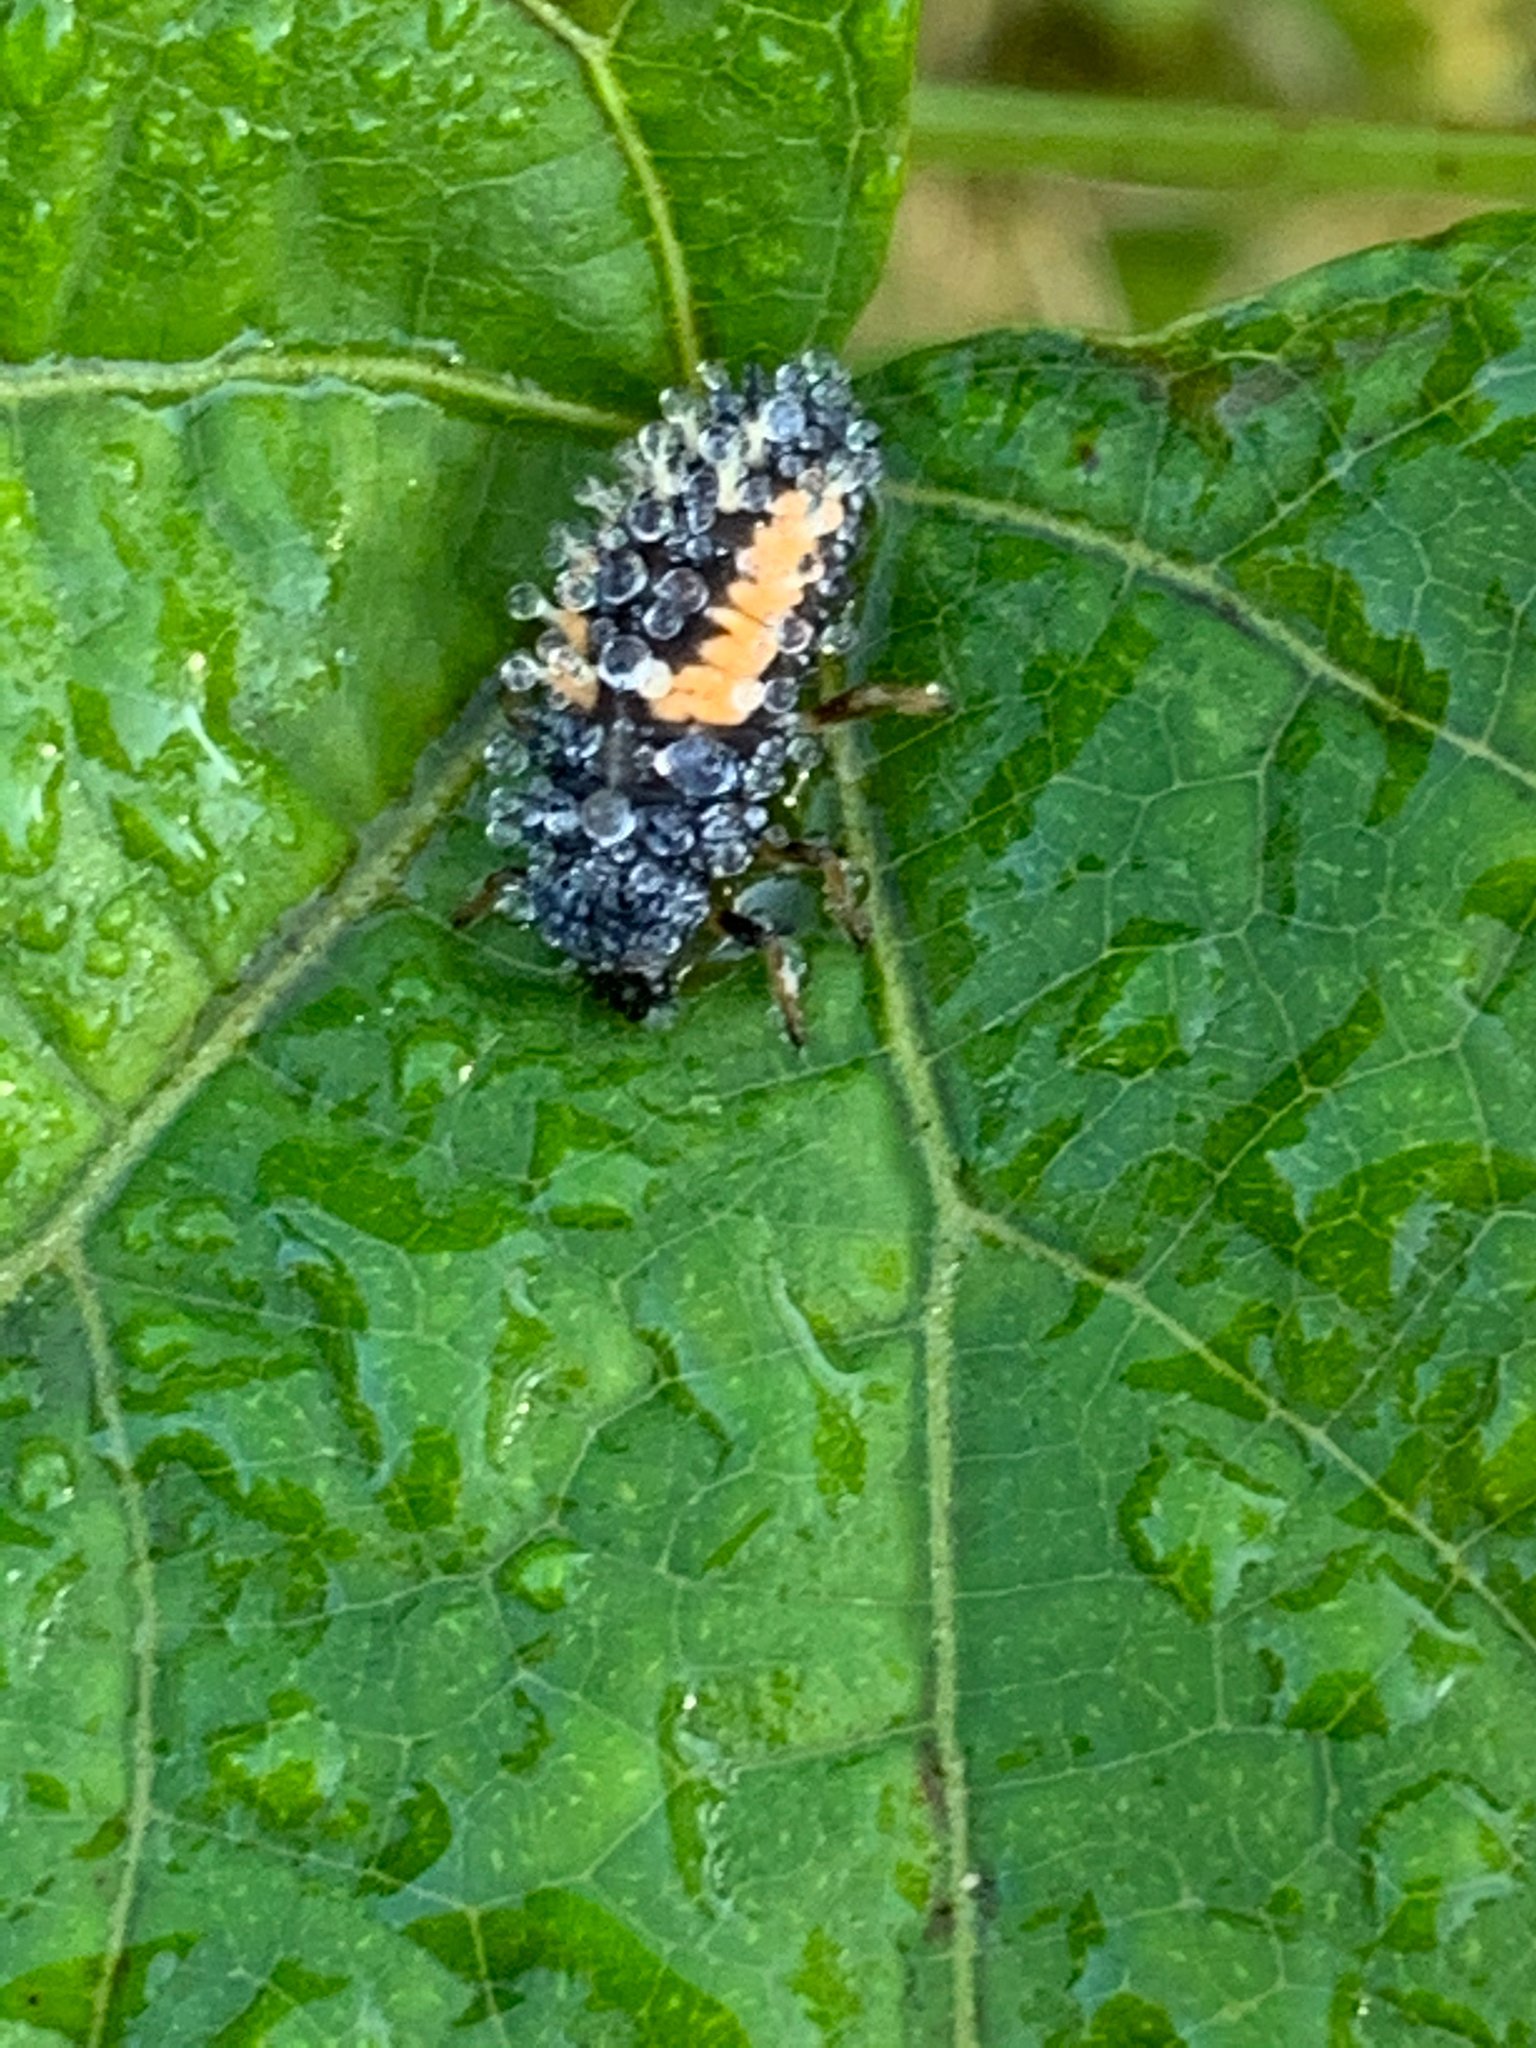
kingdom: Animalia
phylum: Arthropoda
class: Insecta
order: Coleoptera
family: Coccinellidae
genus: Harmonia
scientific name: Harmonia axyridis
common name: Harlequin ladybird
